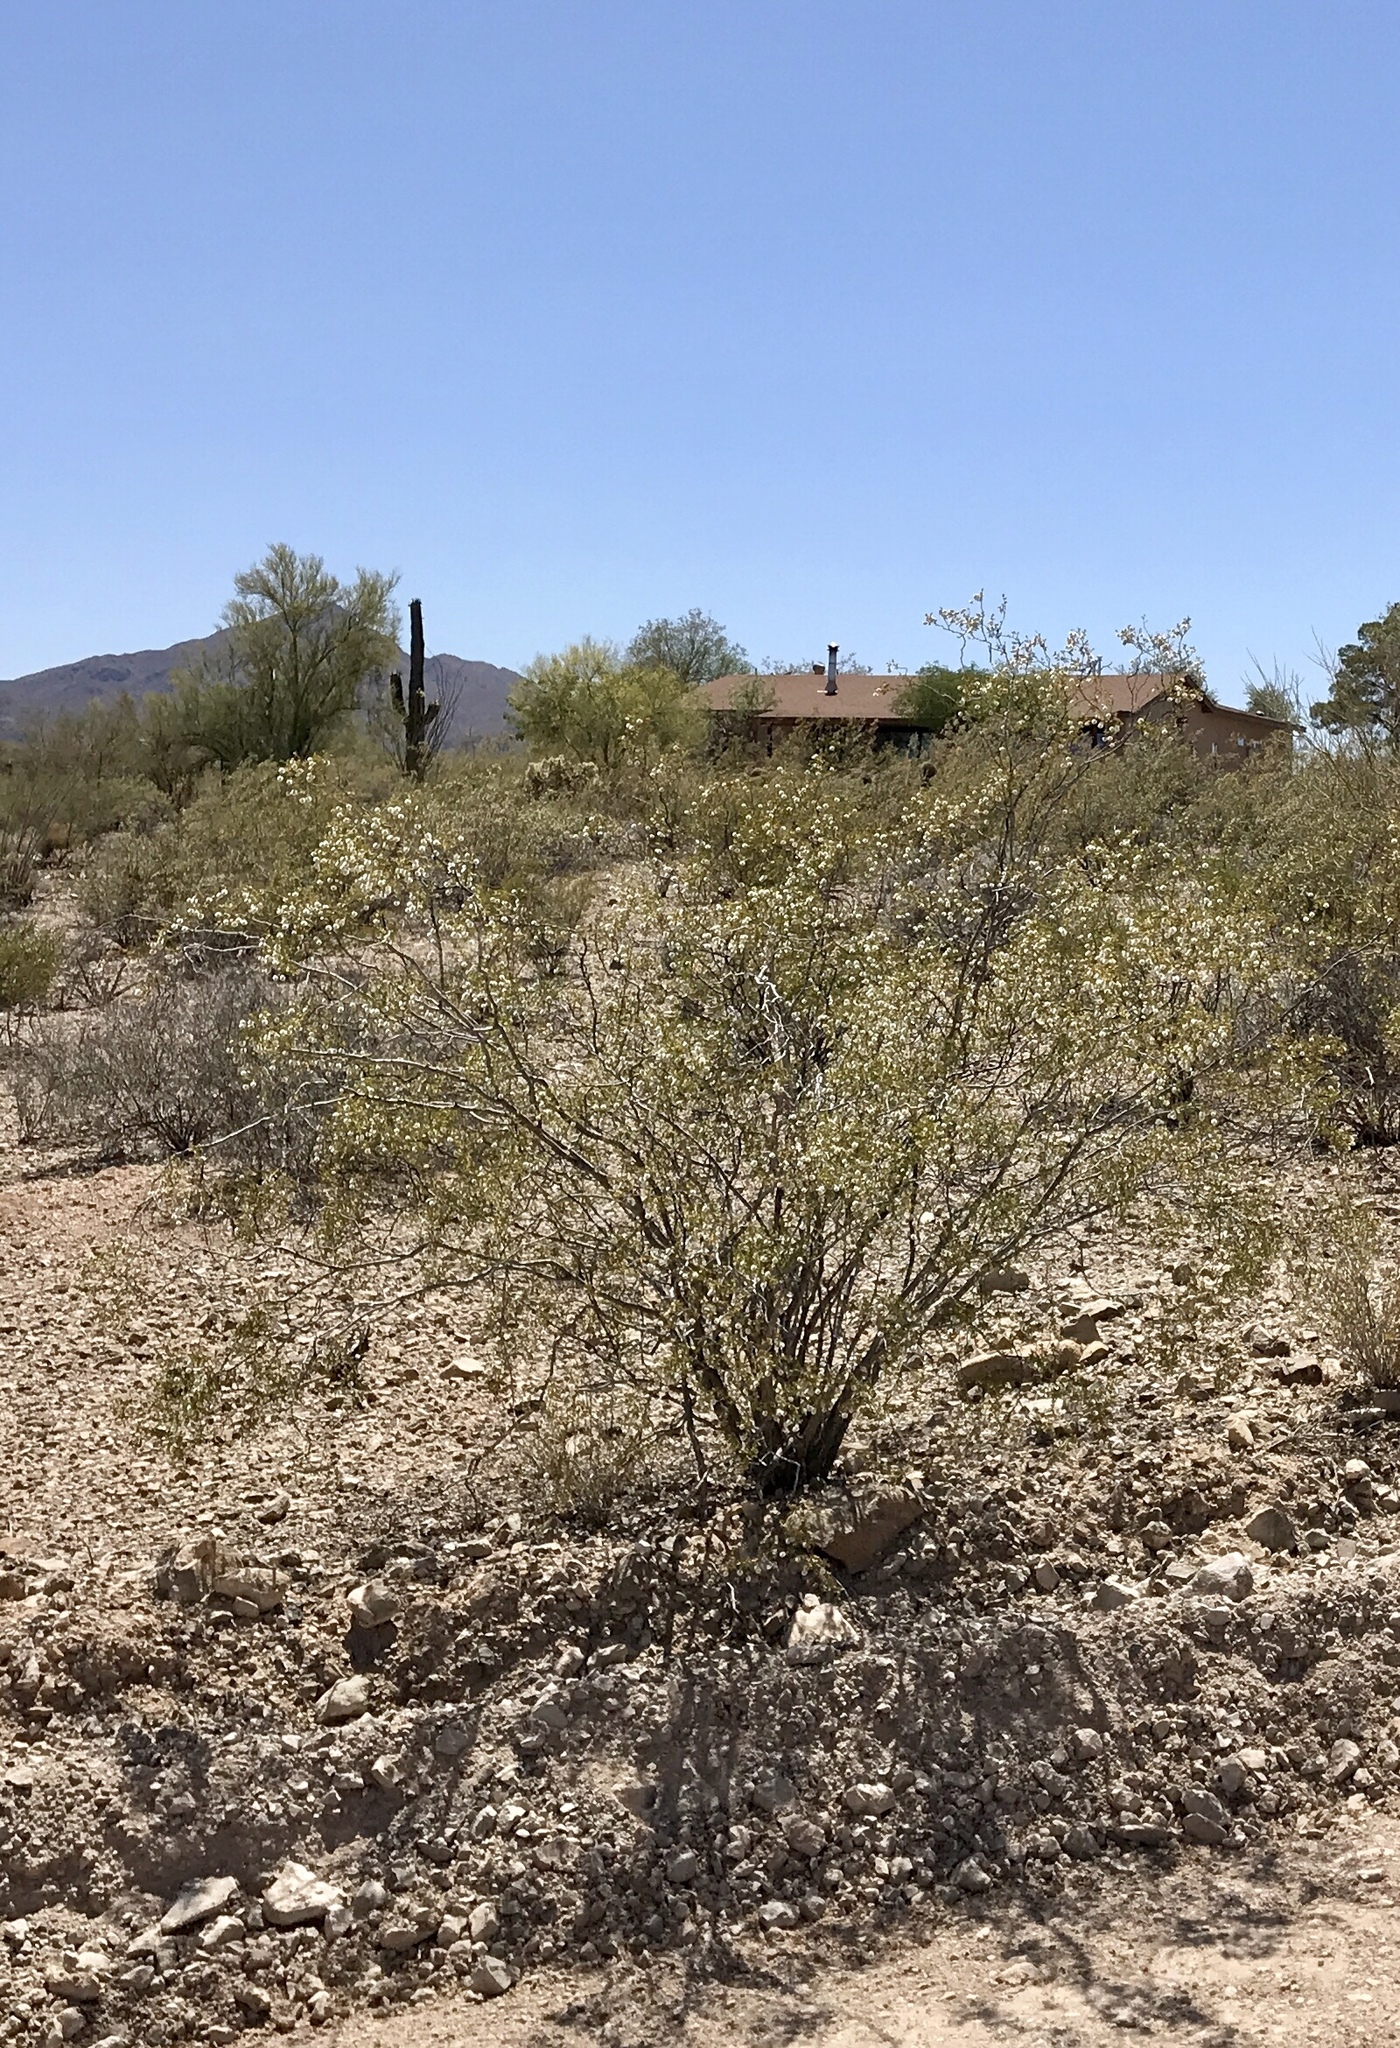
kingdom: Plantae
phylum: Tracheophyta
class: Magnoliopsida
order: Zygophyllales
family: Zygophyllaceae
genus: Larrea
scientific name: Larrea tridentata
